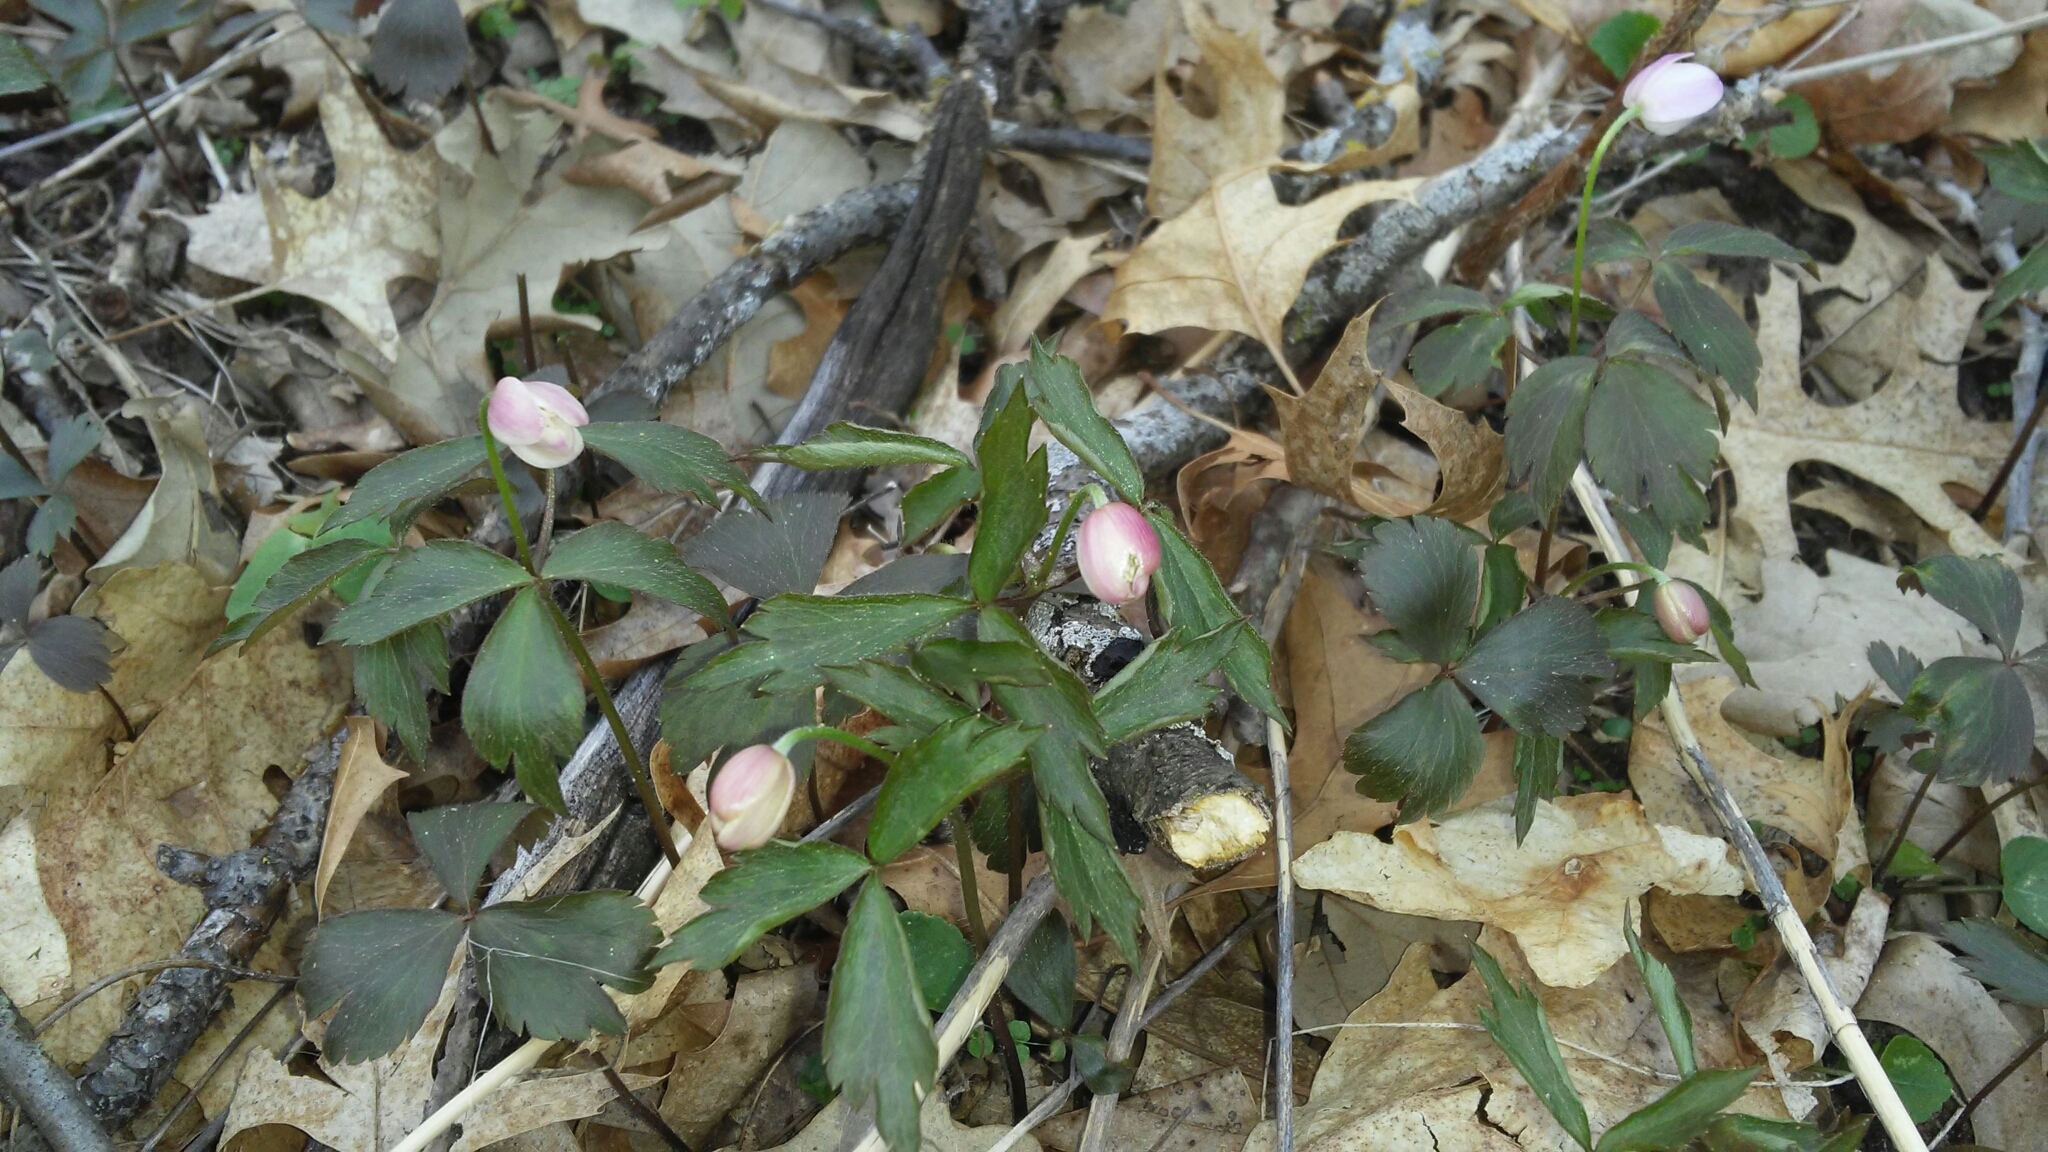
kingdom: Plantae
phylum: Tracheophyta
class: Magnoliopsida
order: Ranunculales
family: Ranunculaceae
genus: Anemone
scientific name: Anemone quinquefolia
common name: Wood anemone
